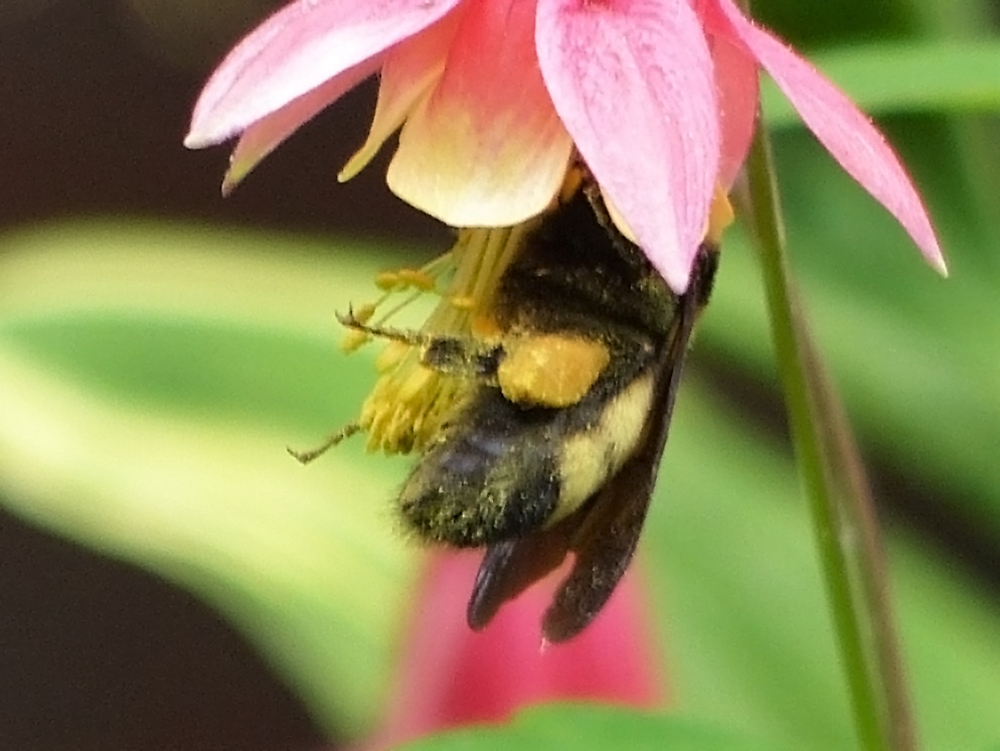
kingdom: Animalia
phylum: Arthropoda
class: Insecta
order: Hymenoptera
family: Apidae
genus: Bombus
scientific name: Bombus auricomus
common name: Black and gold bumble bee
